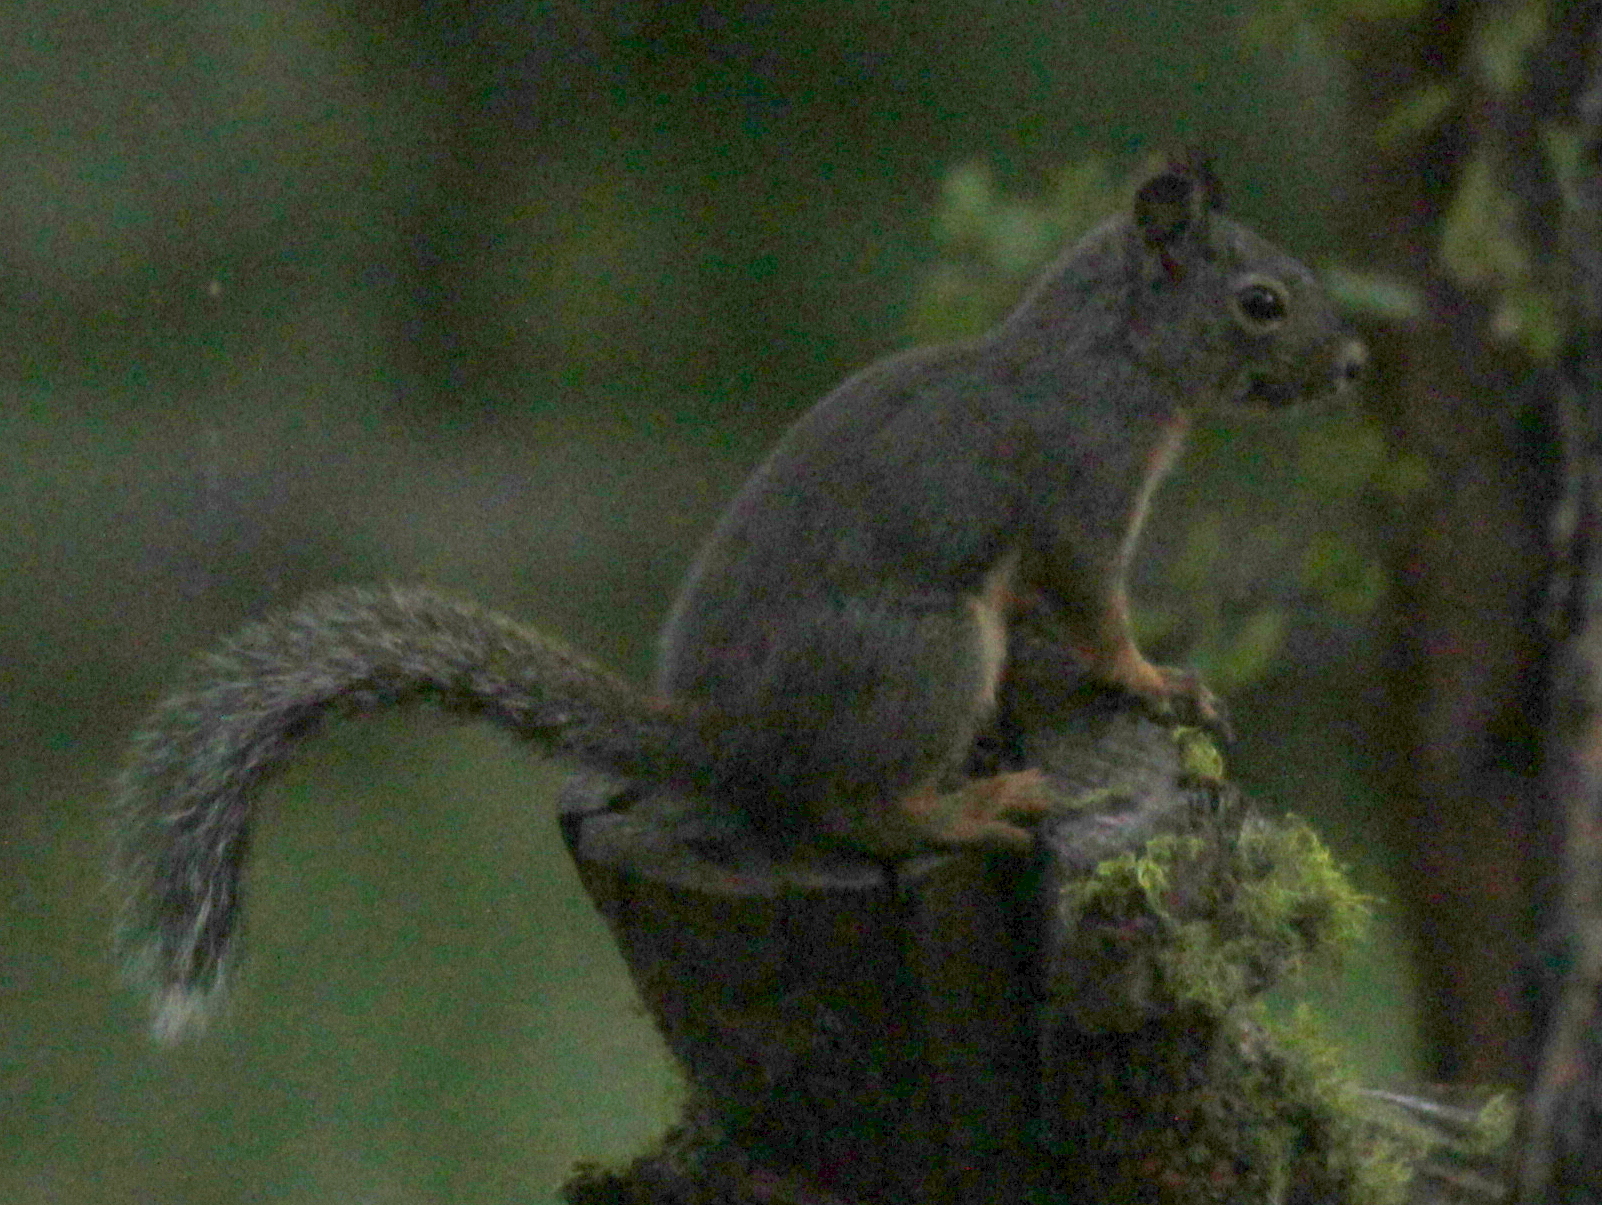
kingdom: Animalia
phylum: Chordata
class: Mammalia
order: Rodentia
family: Sciuridae
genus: Tamiasciurus
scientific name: Tamiasciurus douglasii
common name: Douglas's squirrel
